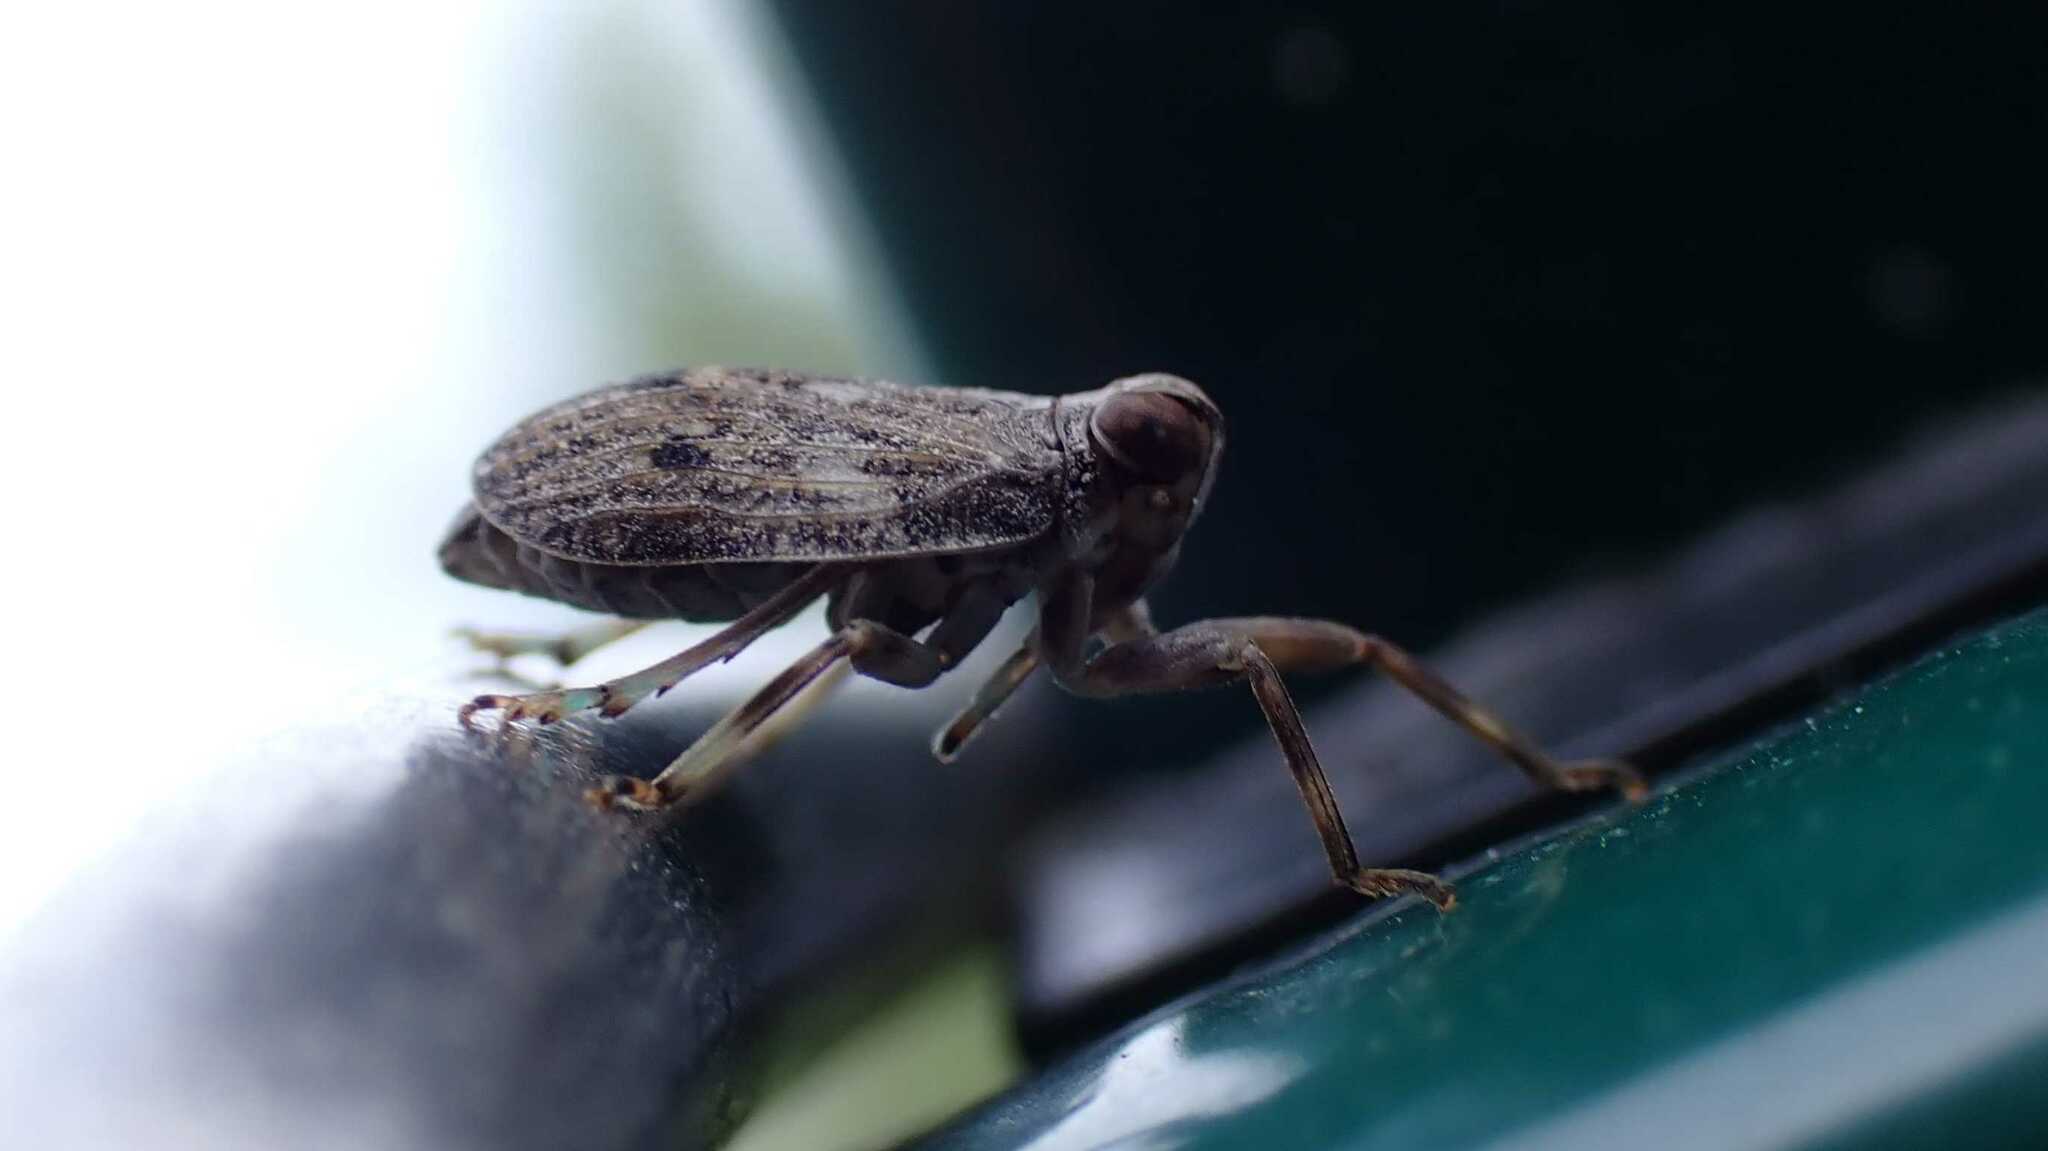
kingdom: Animalia
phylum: Arthropoda
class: Insecta
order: Hemiptera
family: Issidae
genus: Issus
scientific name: Issus coleoptratus
